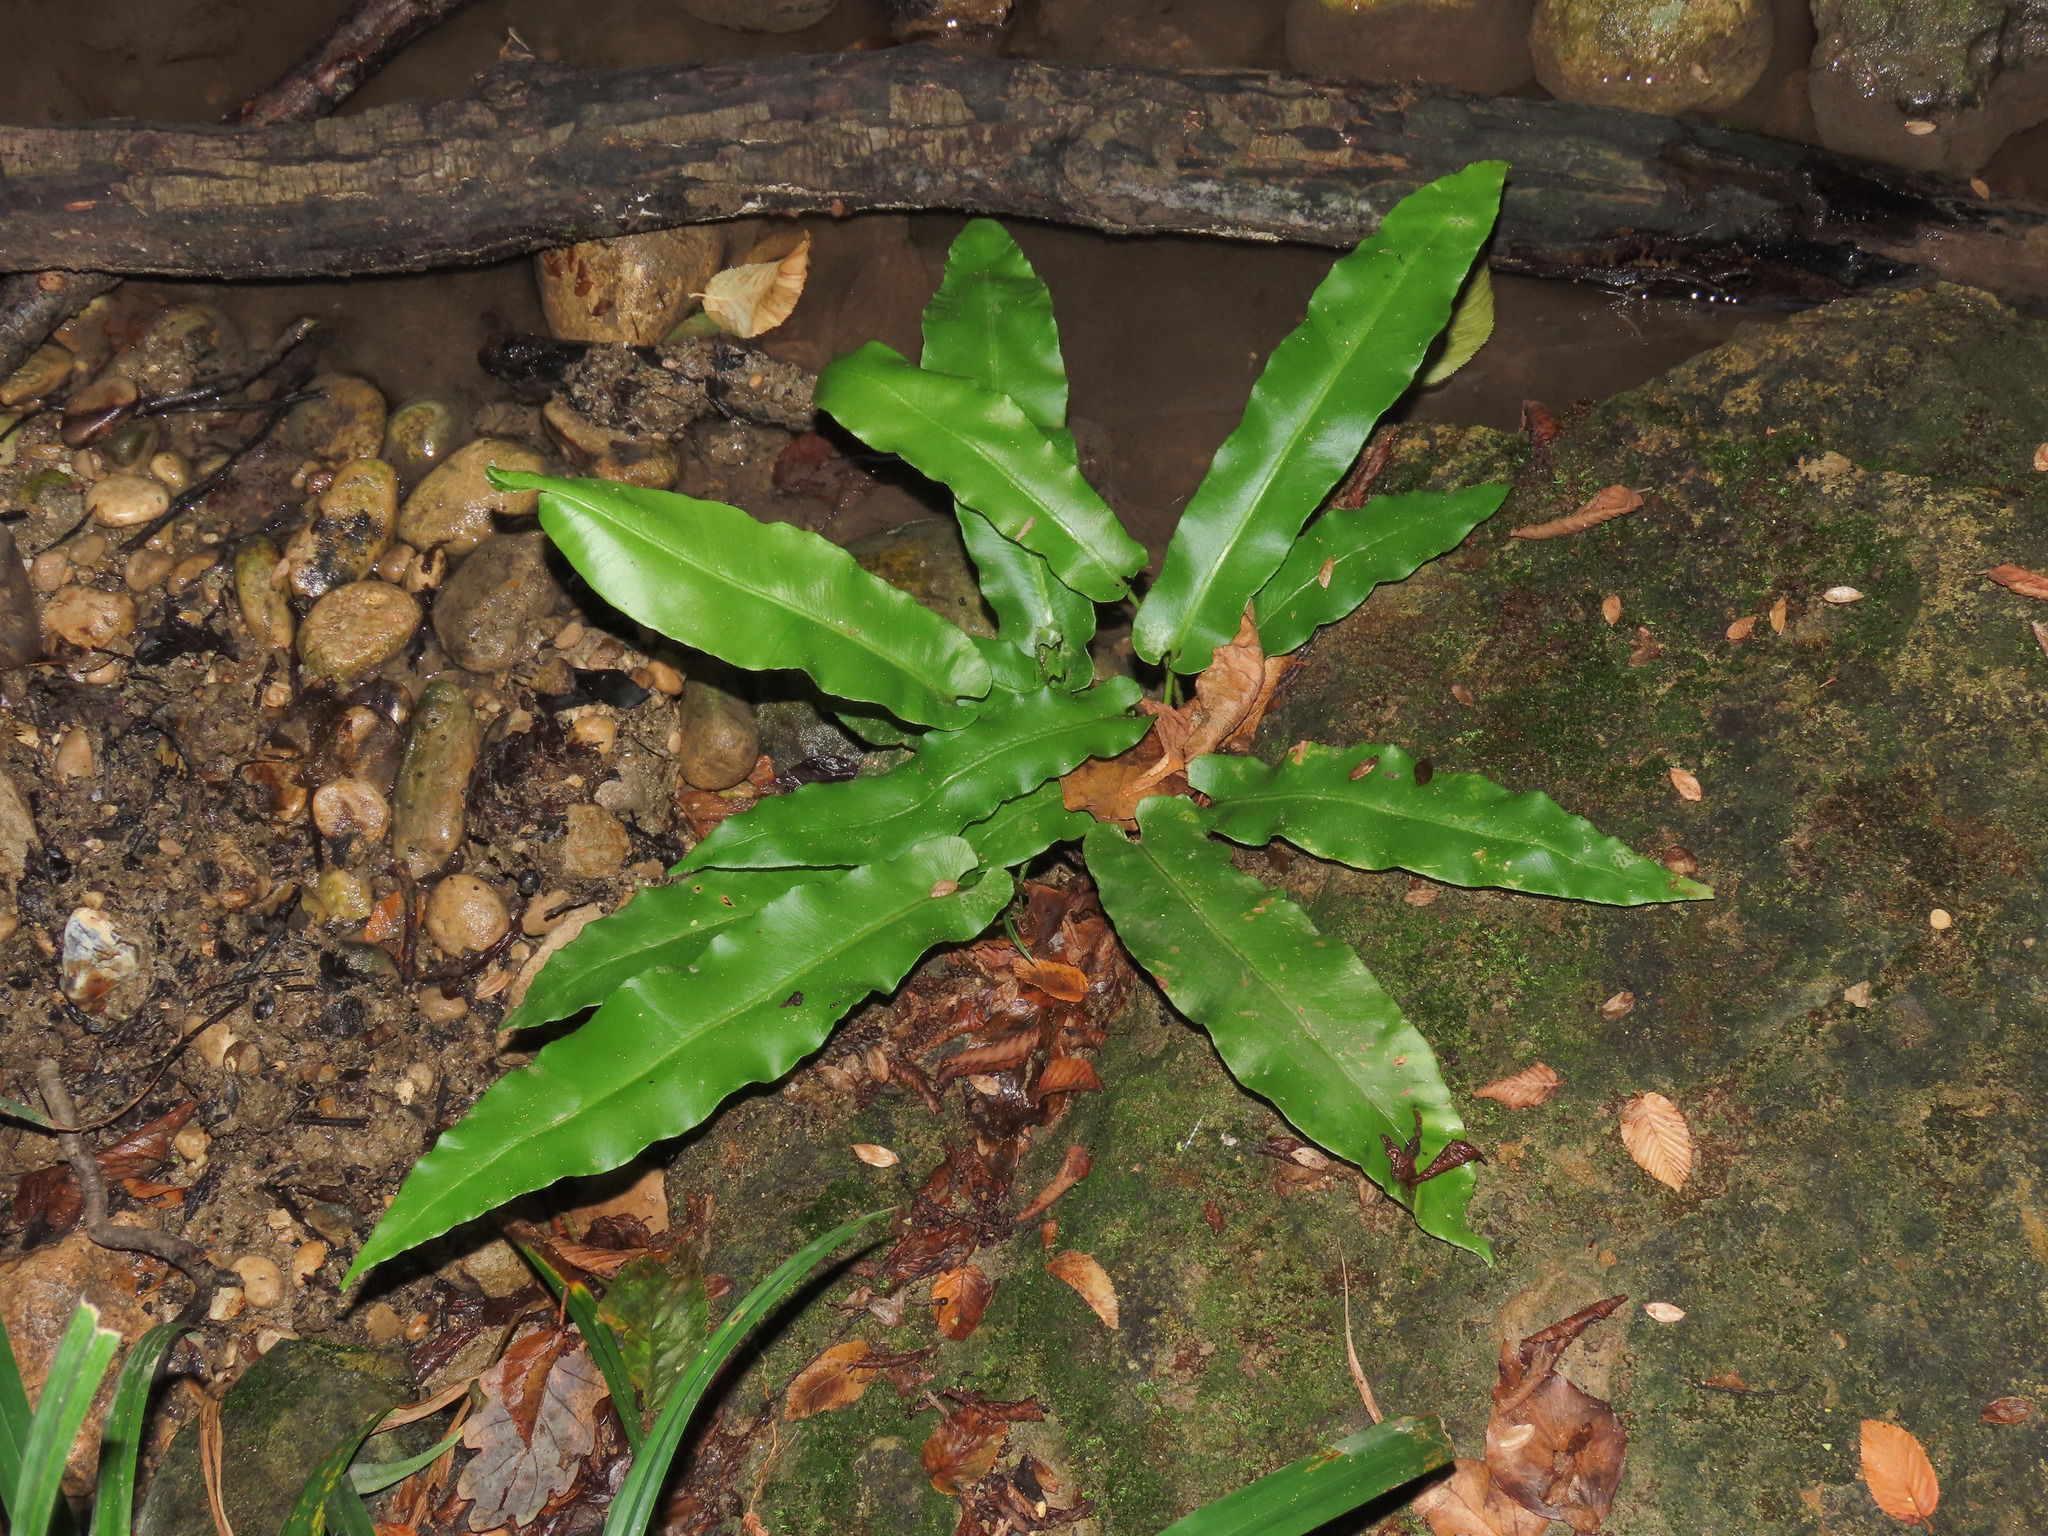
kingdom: Plantae
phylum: Tracheophyta
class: Polypodiopsida
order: Polypodiales
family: Aspleniaceae
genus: Asplenium
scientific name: Asplenium scolopendrium
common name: Hart's-tongue fern
